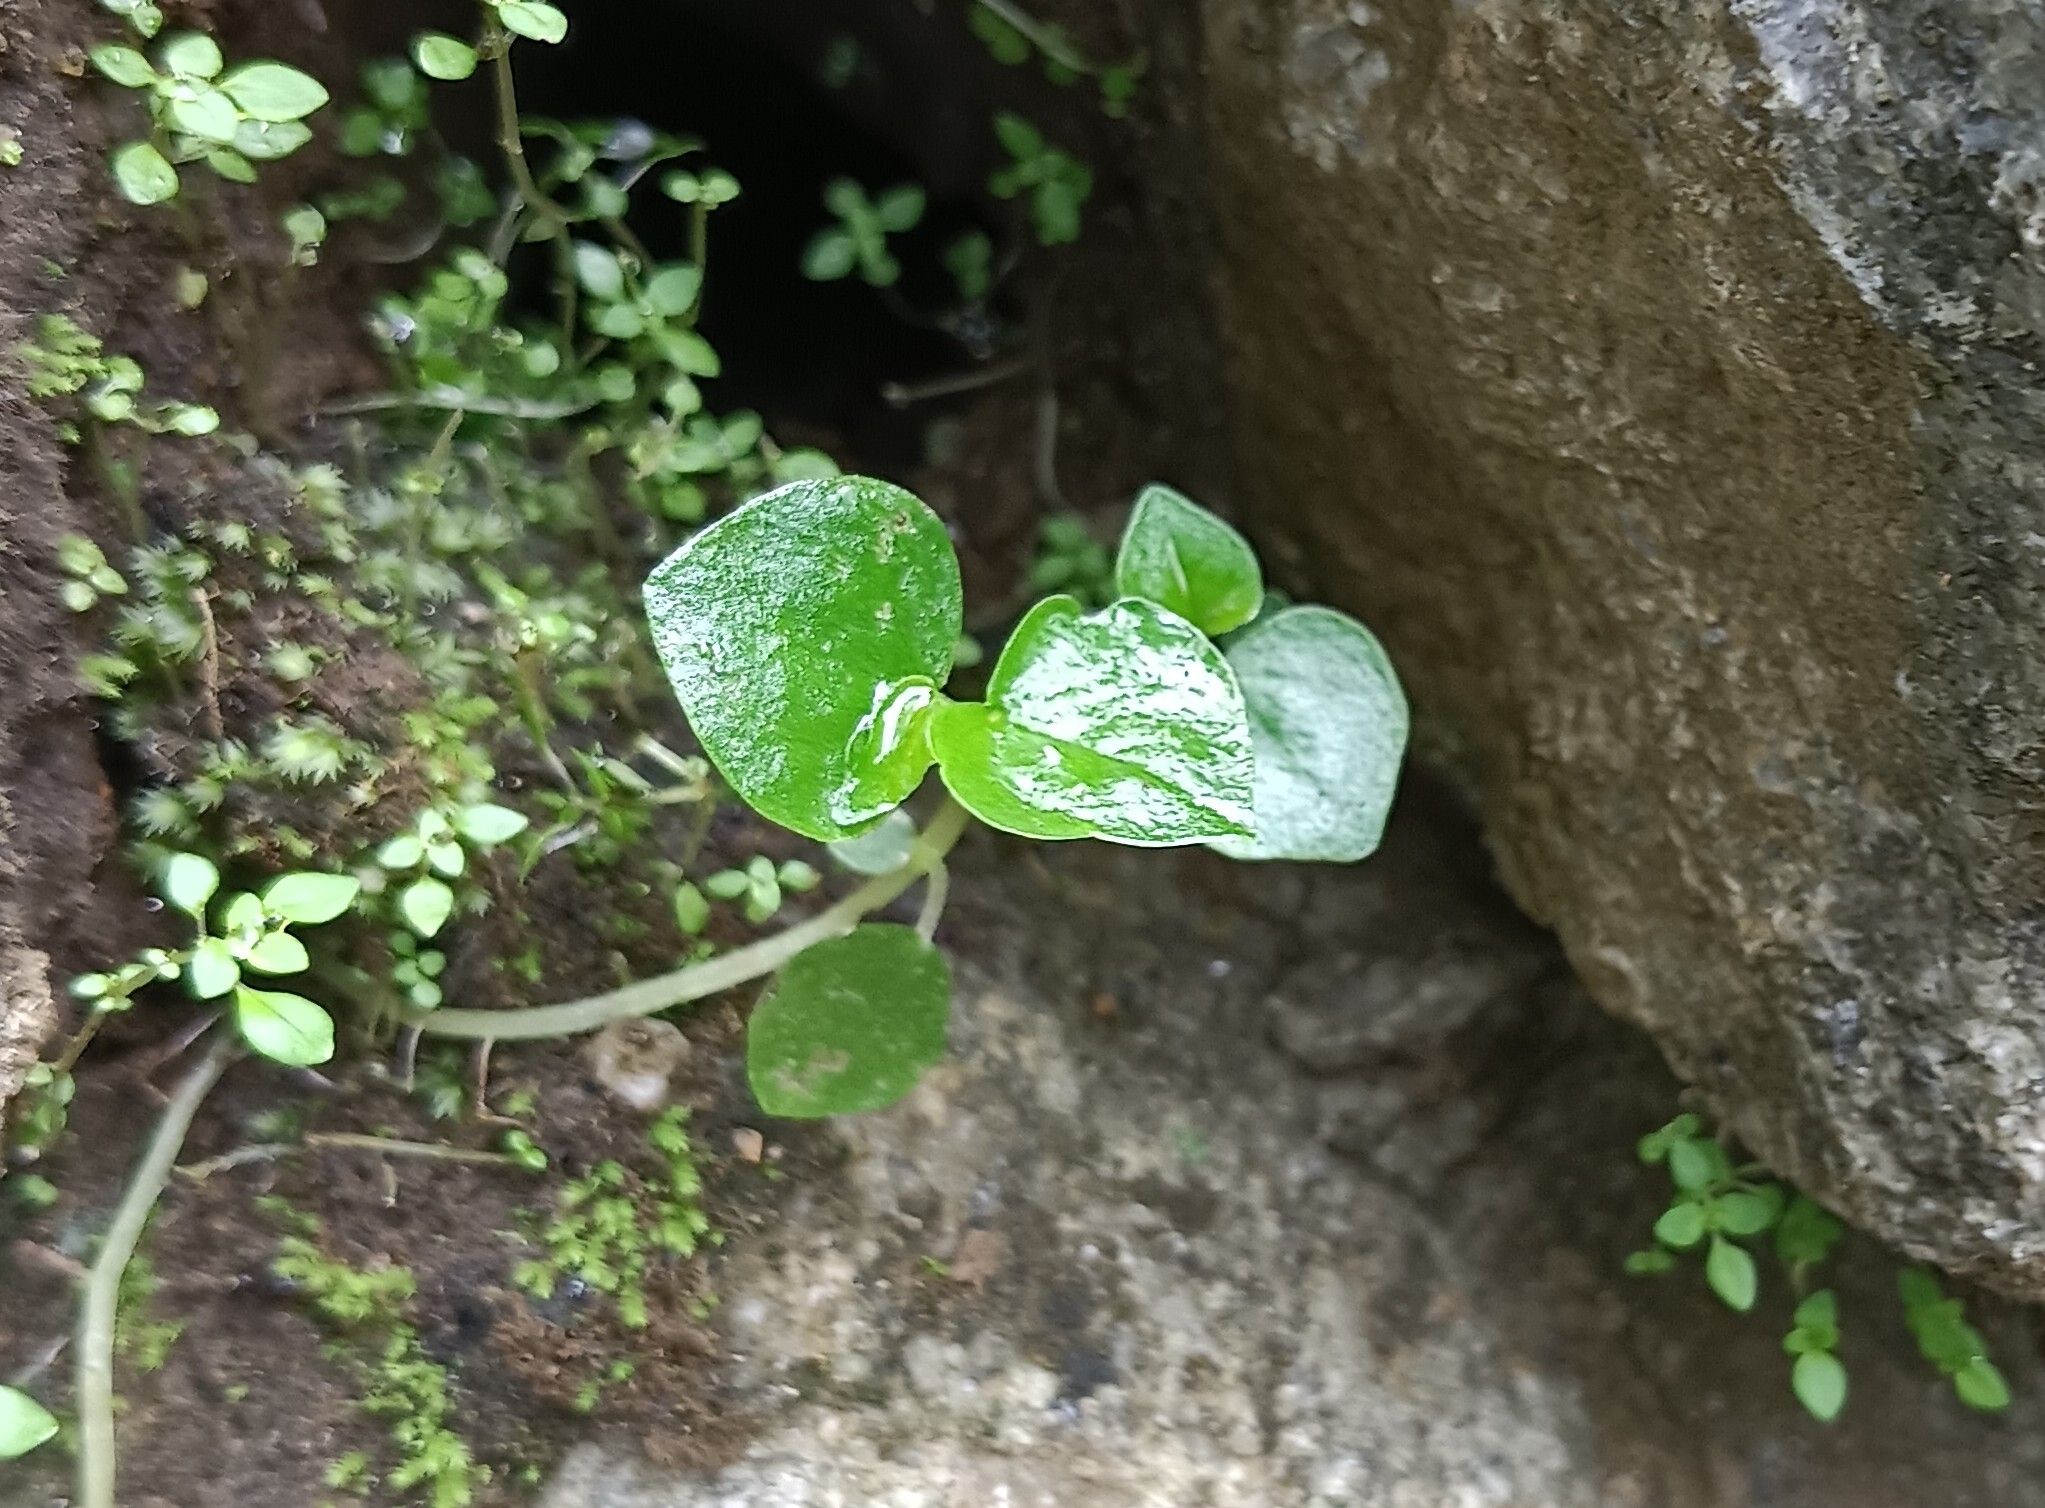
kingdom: Plantae
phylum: Tracheophyta
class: Magnoliopsida
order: Piperales
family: Piperaceae
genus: Peperomia
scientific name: Peperomia pellucida
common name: Man to man
